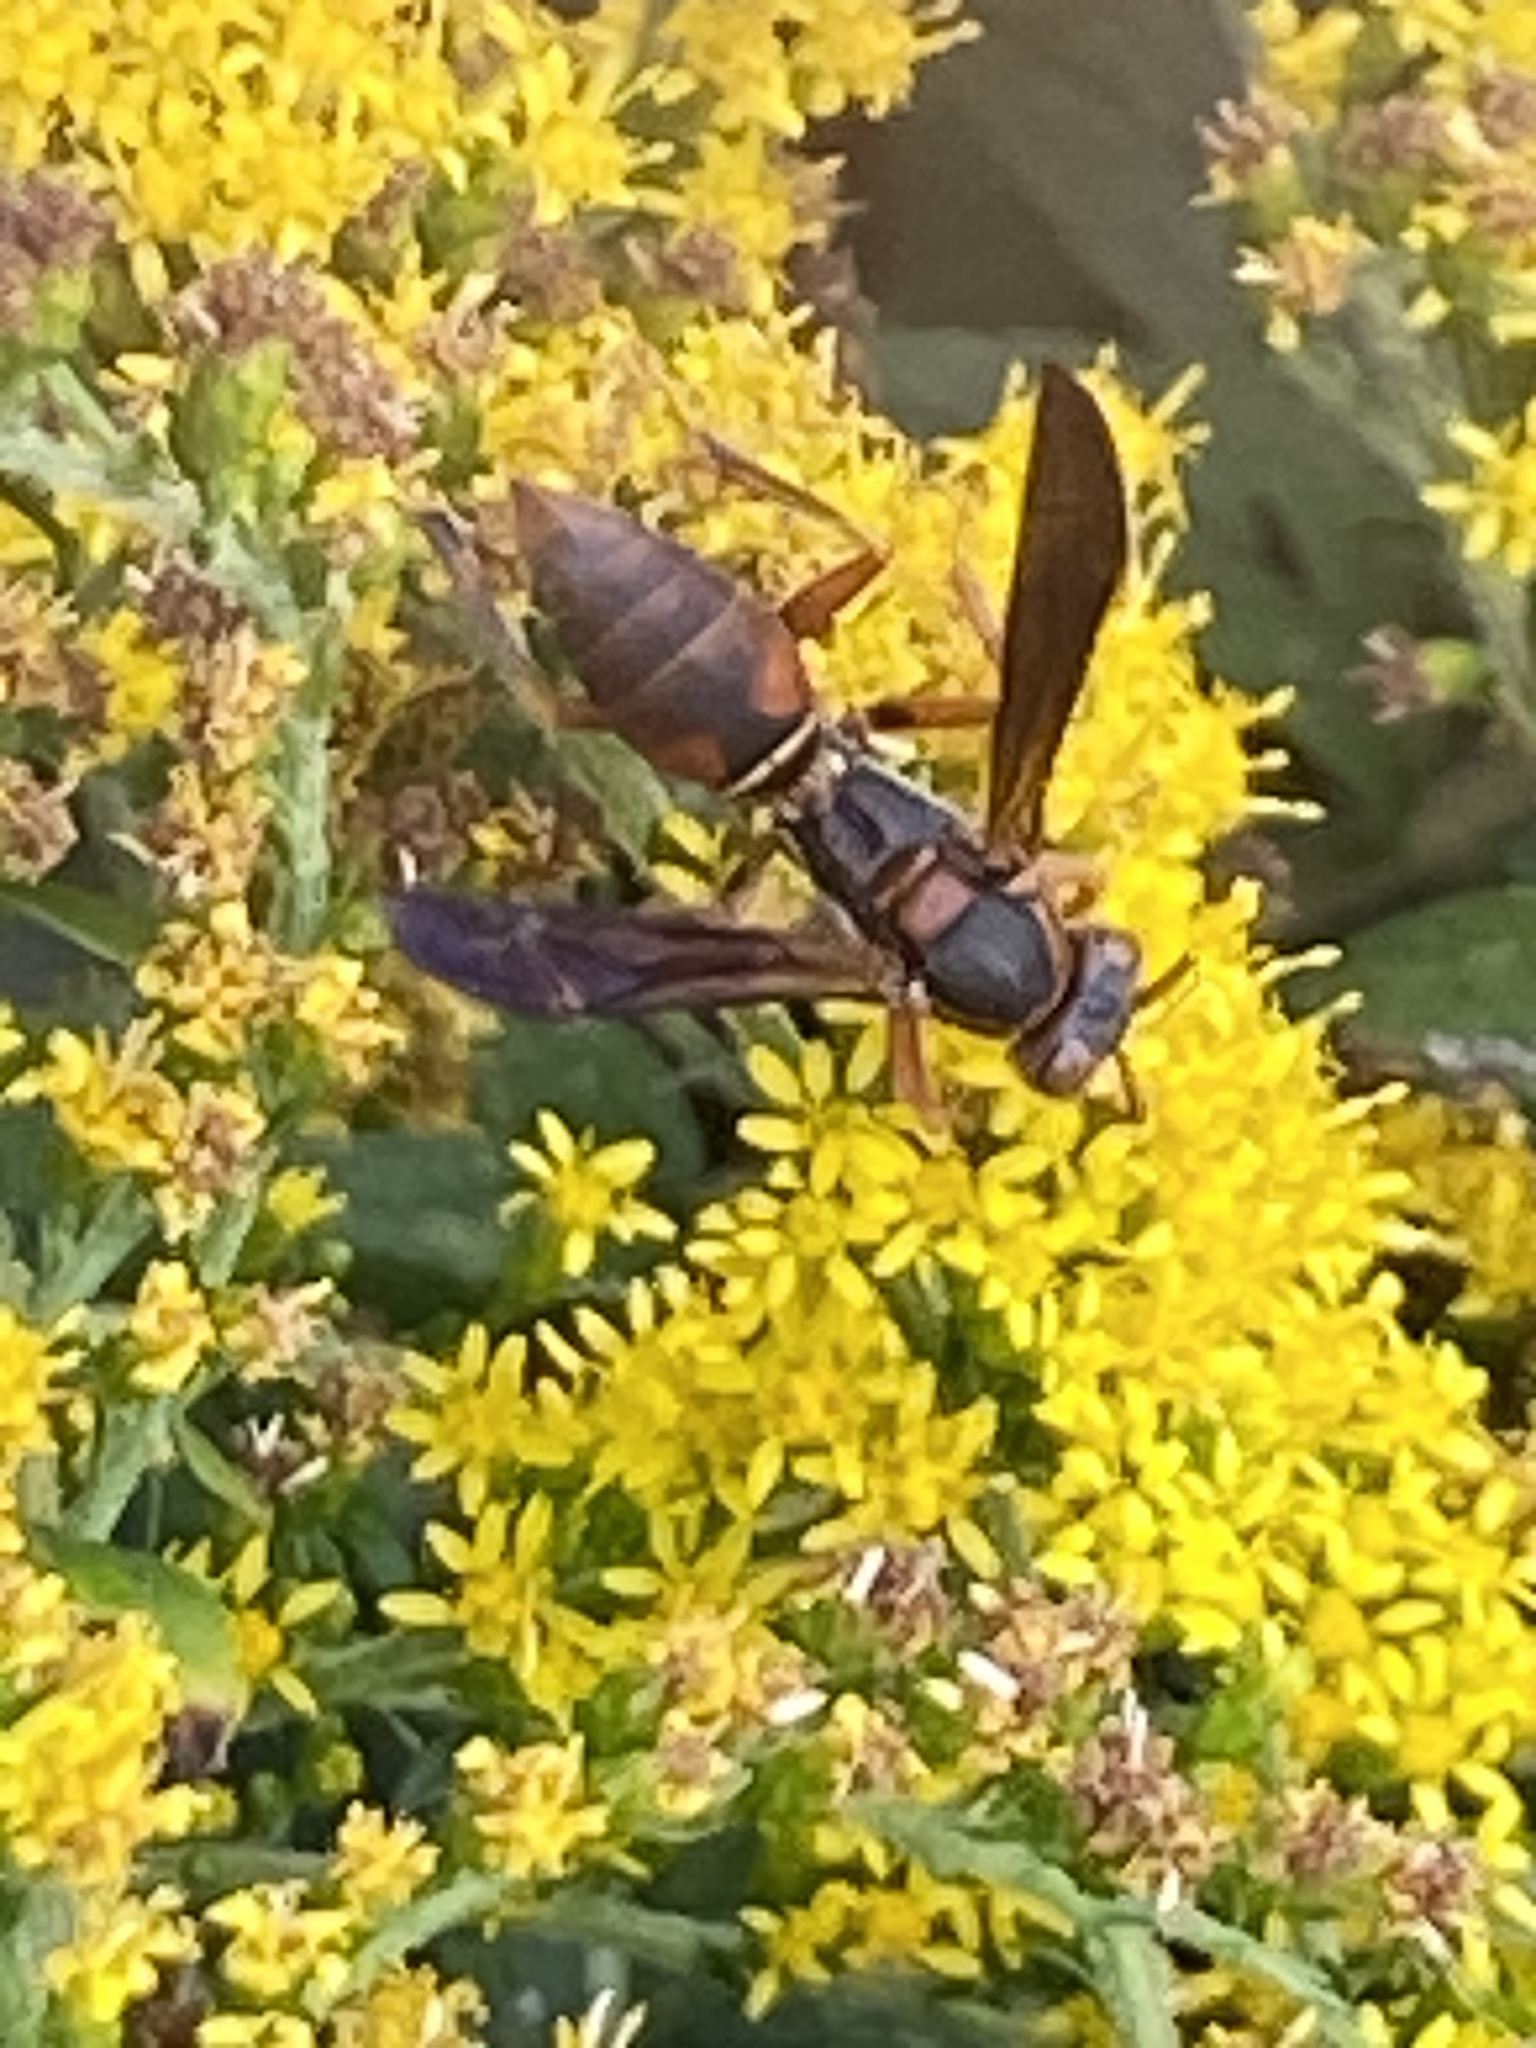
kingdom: Animalia
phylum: Arthropoda
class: Insecta
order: Hymenoptera
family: Eumenidae
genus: Polistes
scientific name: Polistes dorsalis
